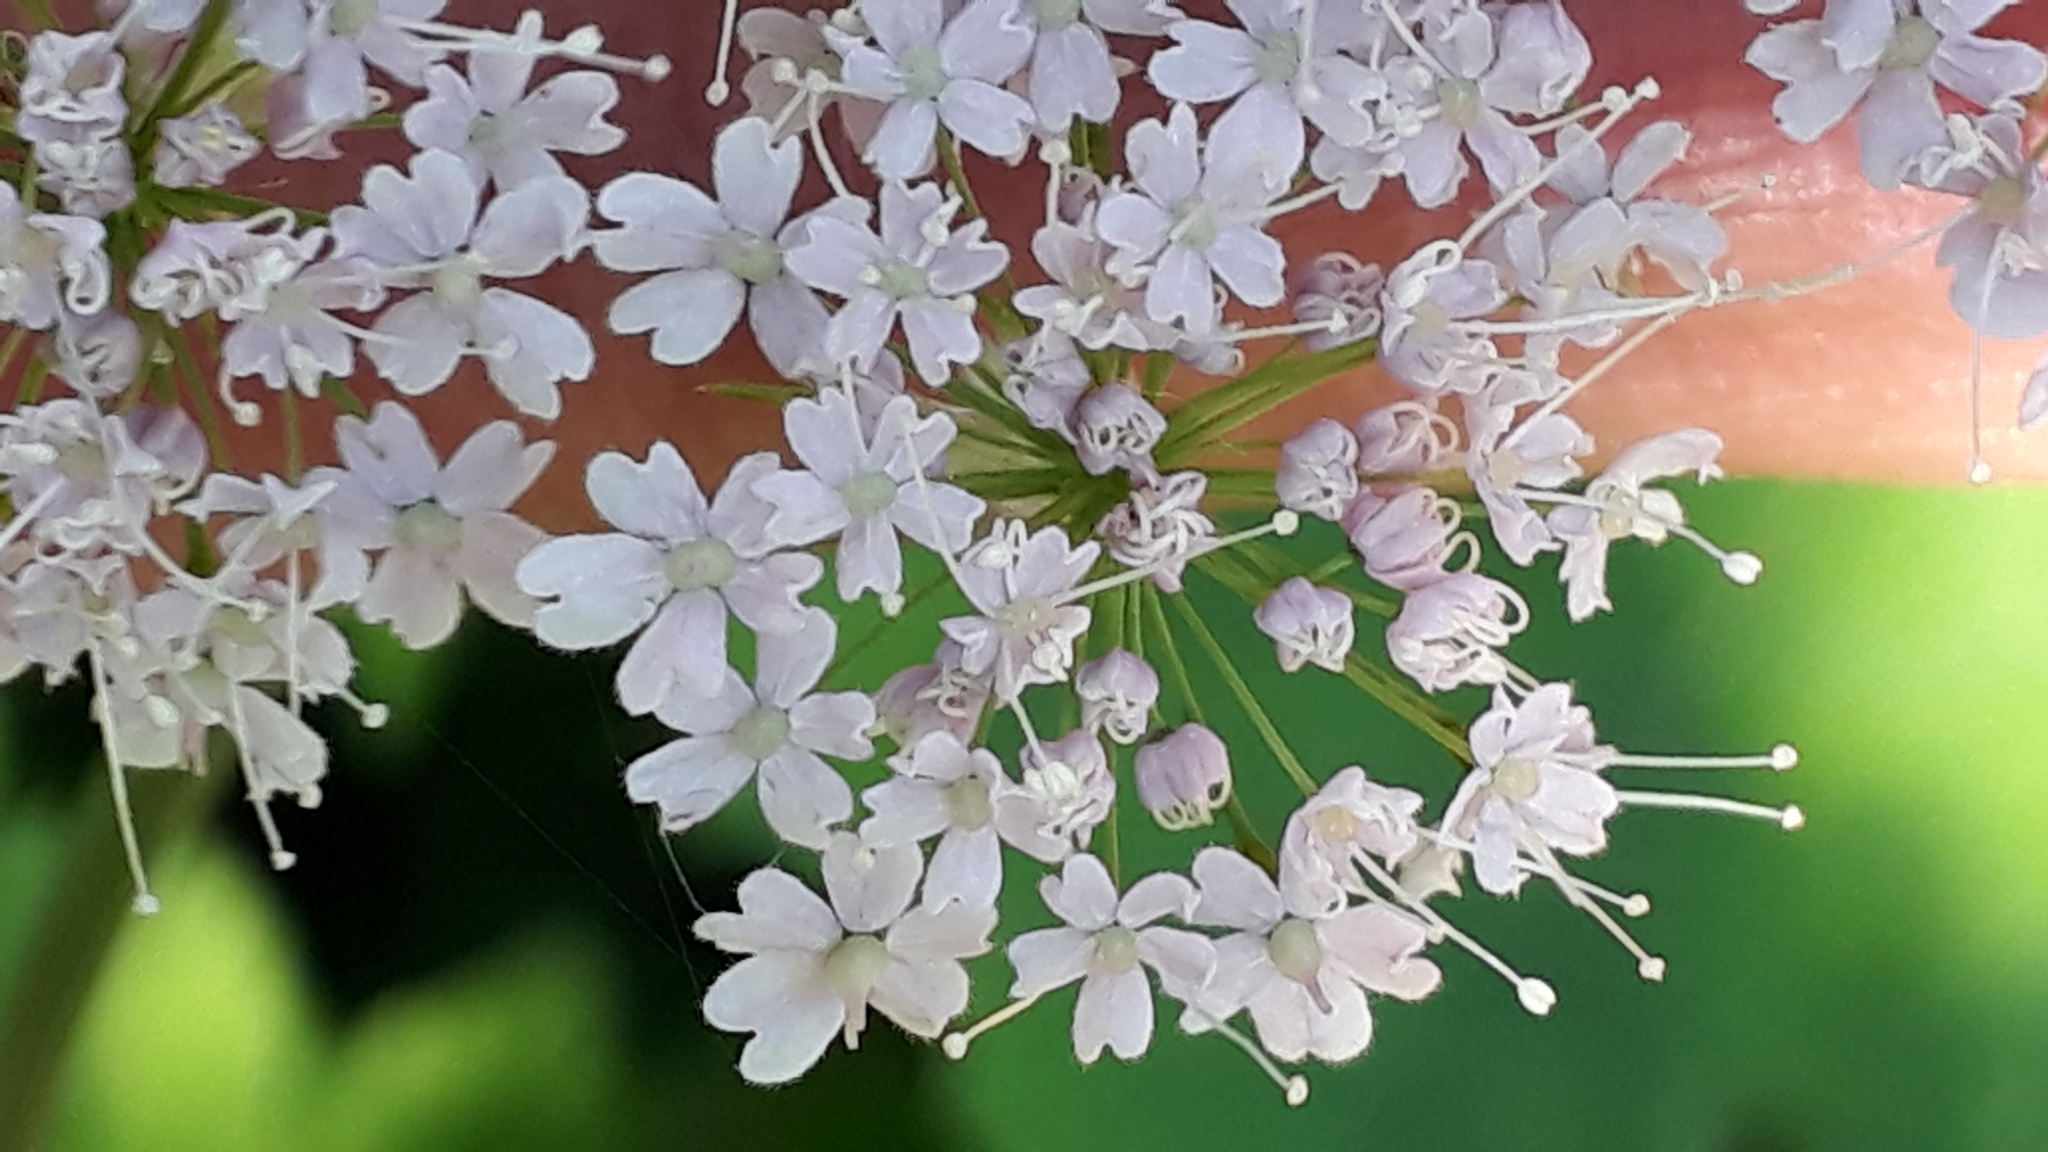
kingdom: Plantae
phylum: Tracheophyta
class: Magnoliopsida
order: Apiales
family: Apiaceae
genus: Chaerophyllum
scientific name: Chaerophyllum hirsutum
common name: Hairy chervil
